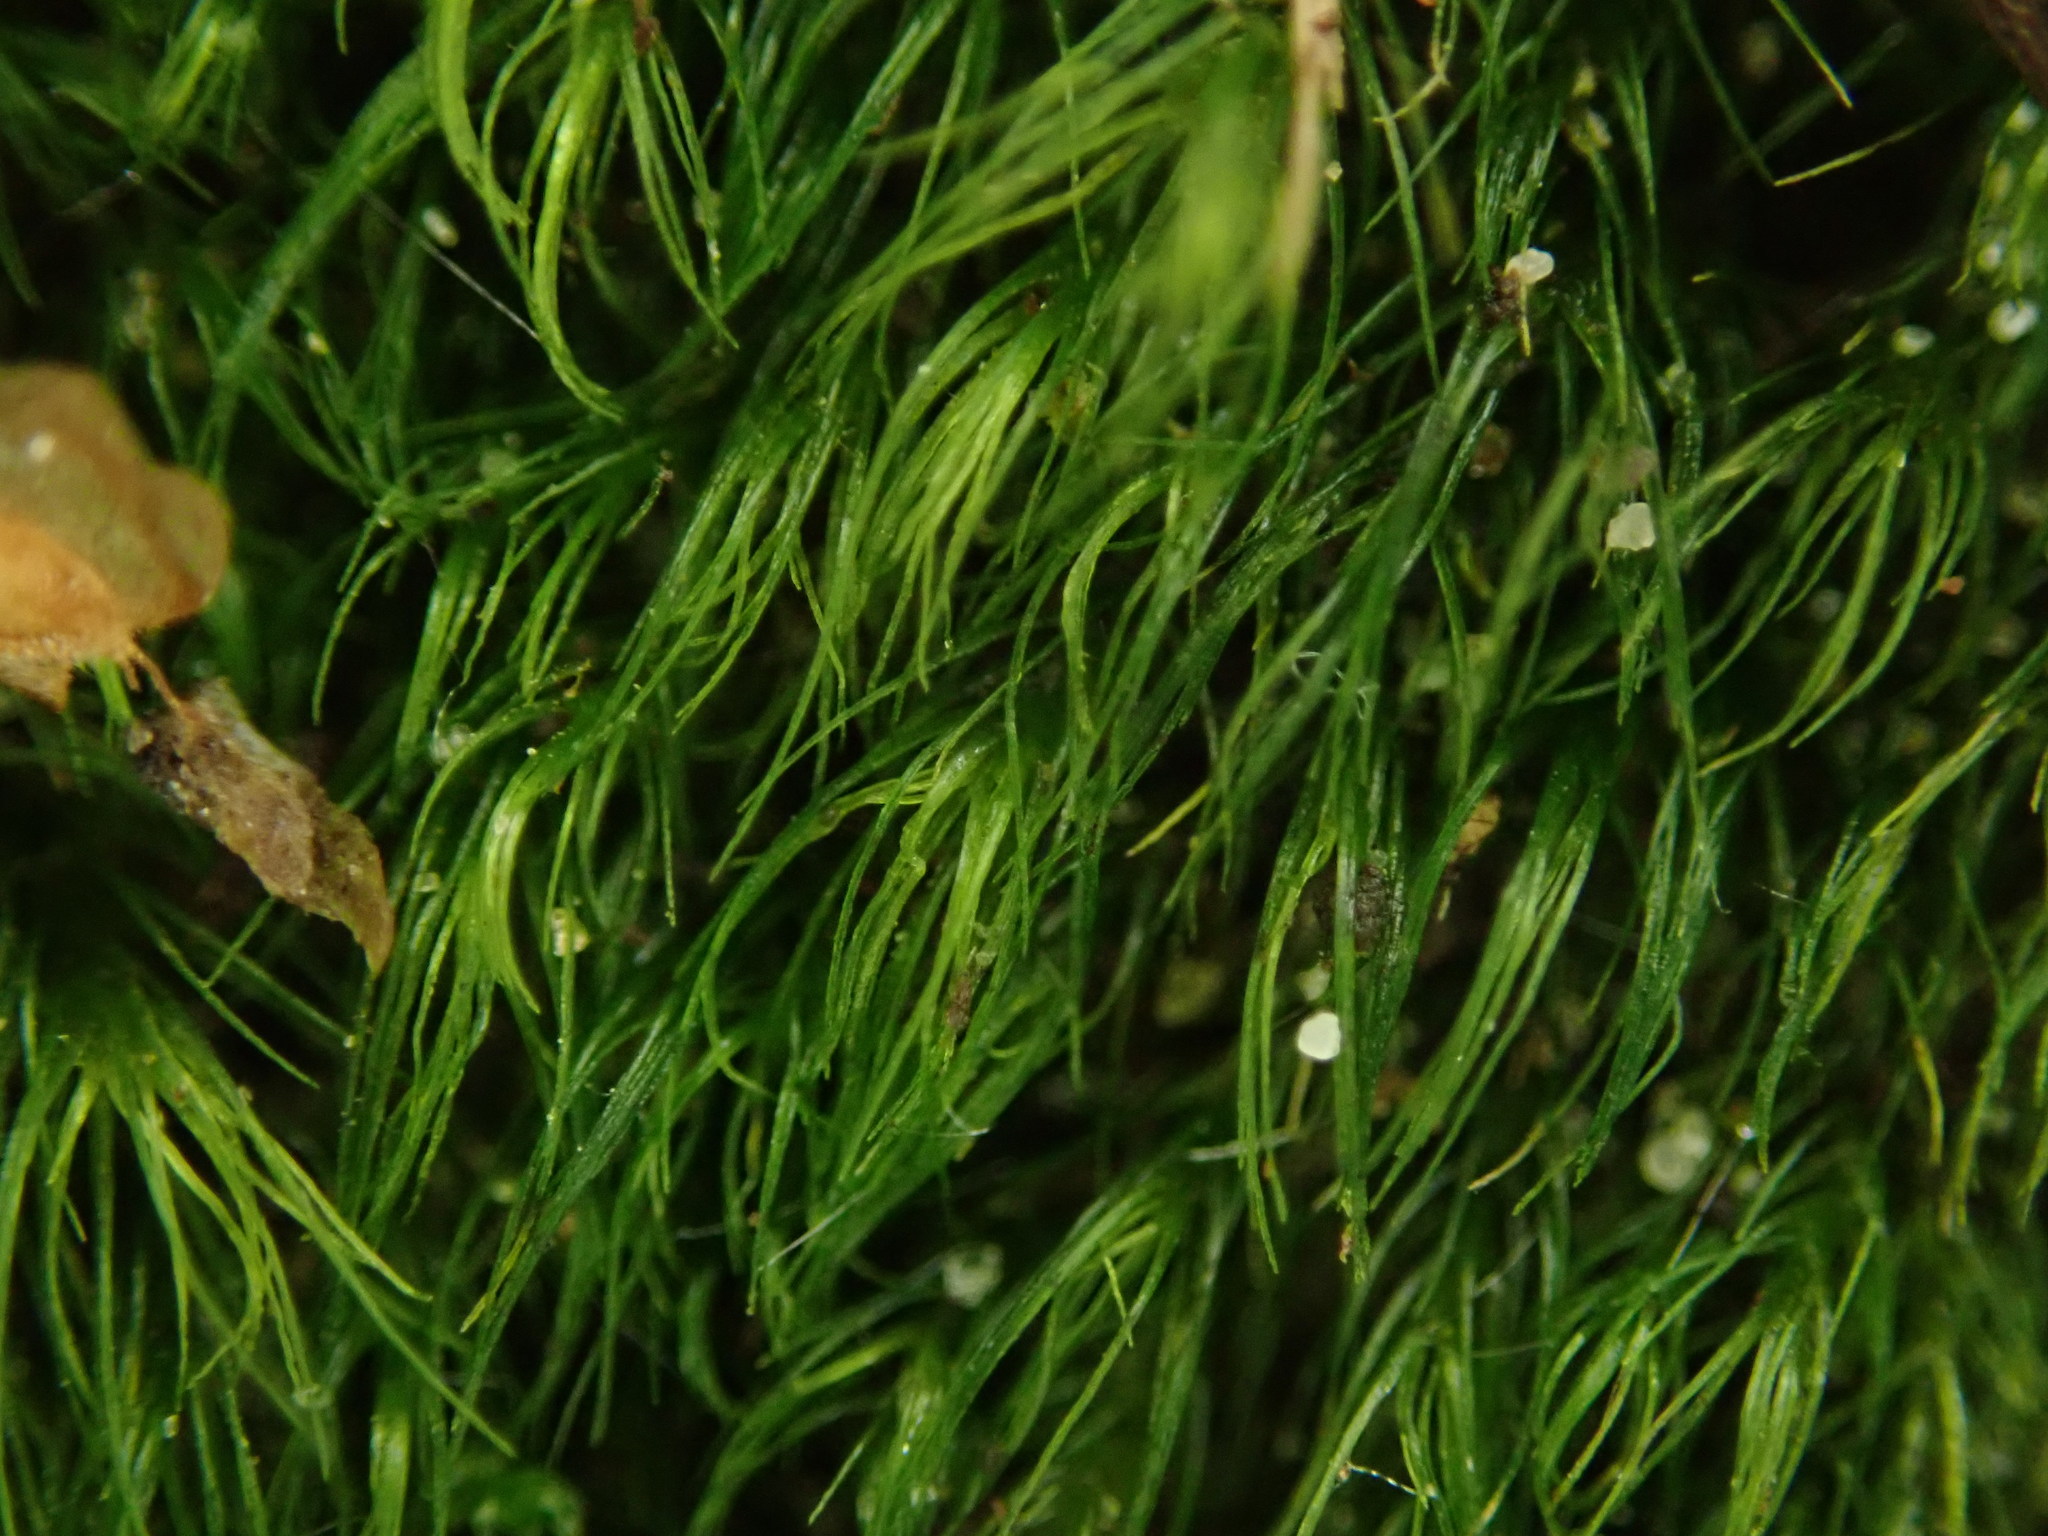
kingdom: Plantae
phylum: Bryophyta
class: Bryopsida
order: Dicranales
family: Dicranellaceae
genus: Dicranella
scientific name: Dicranella heteromalla
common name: Silky forklet moss
